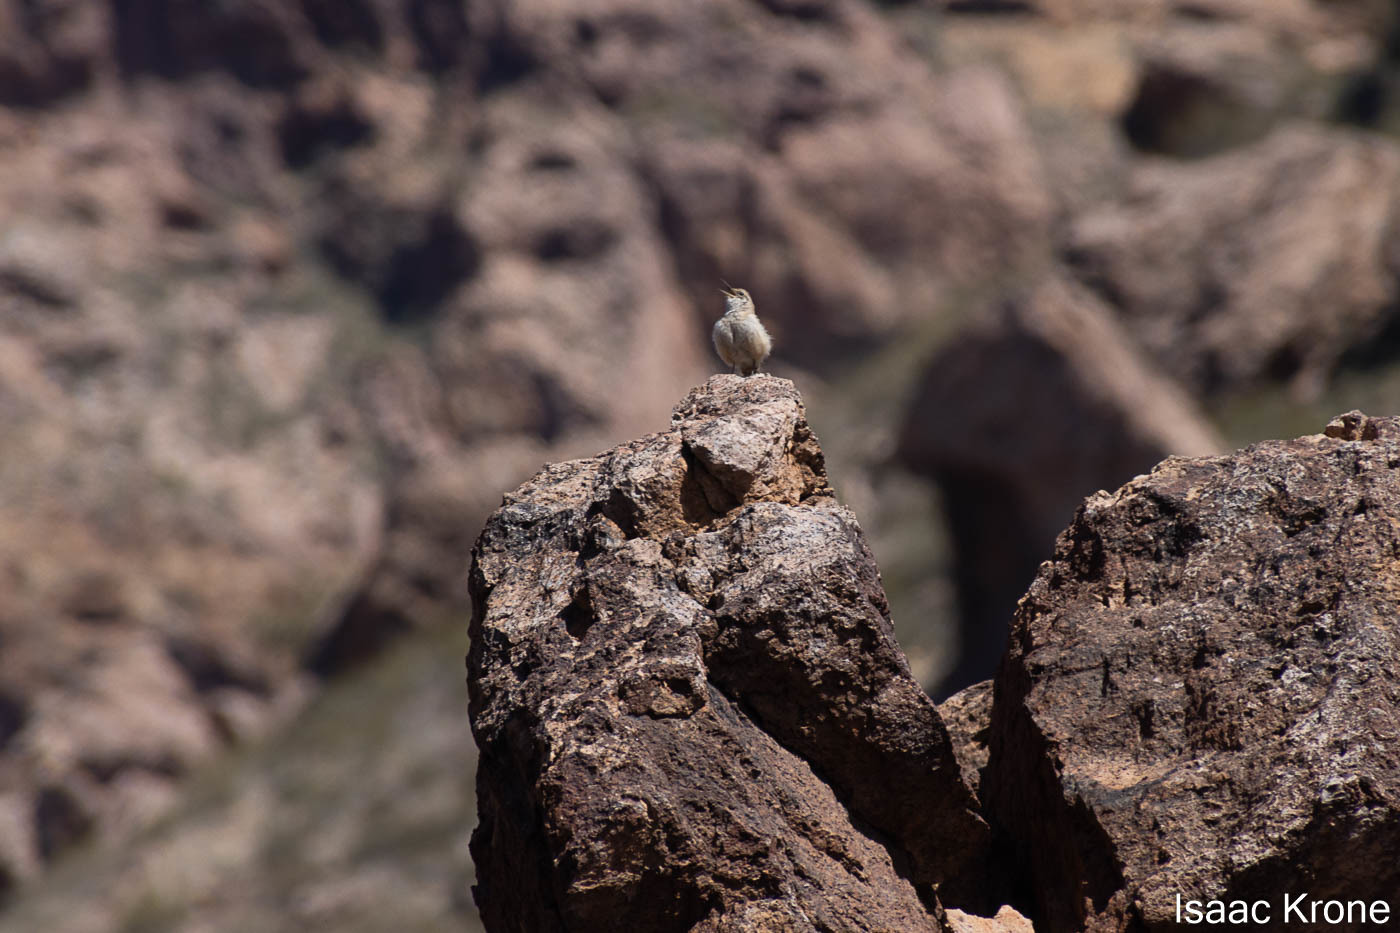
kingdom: Animalia
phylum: Chordata
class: Aves
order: Passeriformes
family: Troglodytidae
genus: Salpinctes
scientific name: Salpinctes obsoletus
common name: Rock wren
